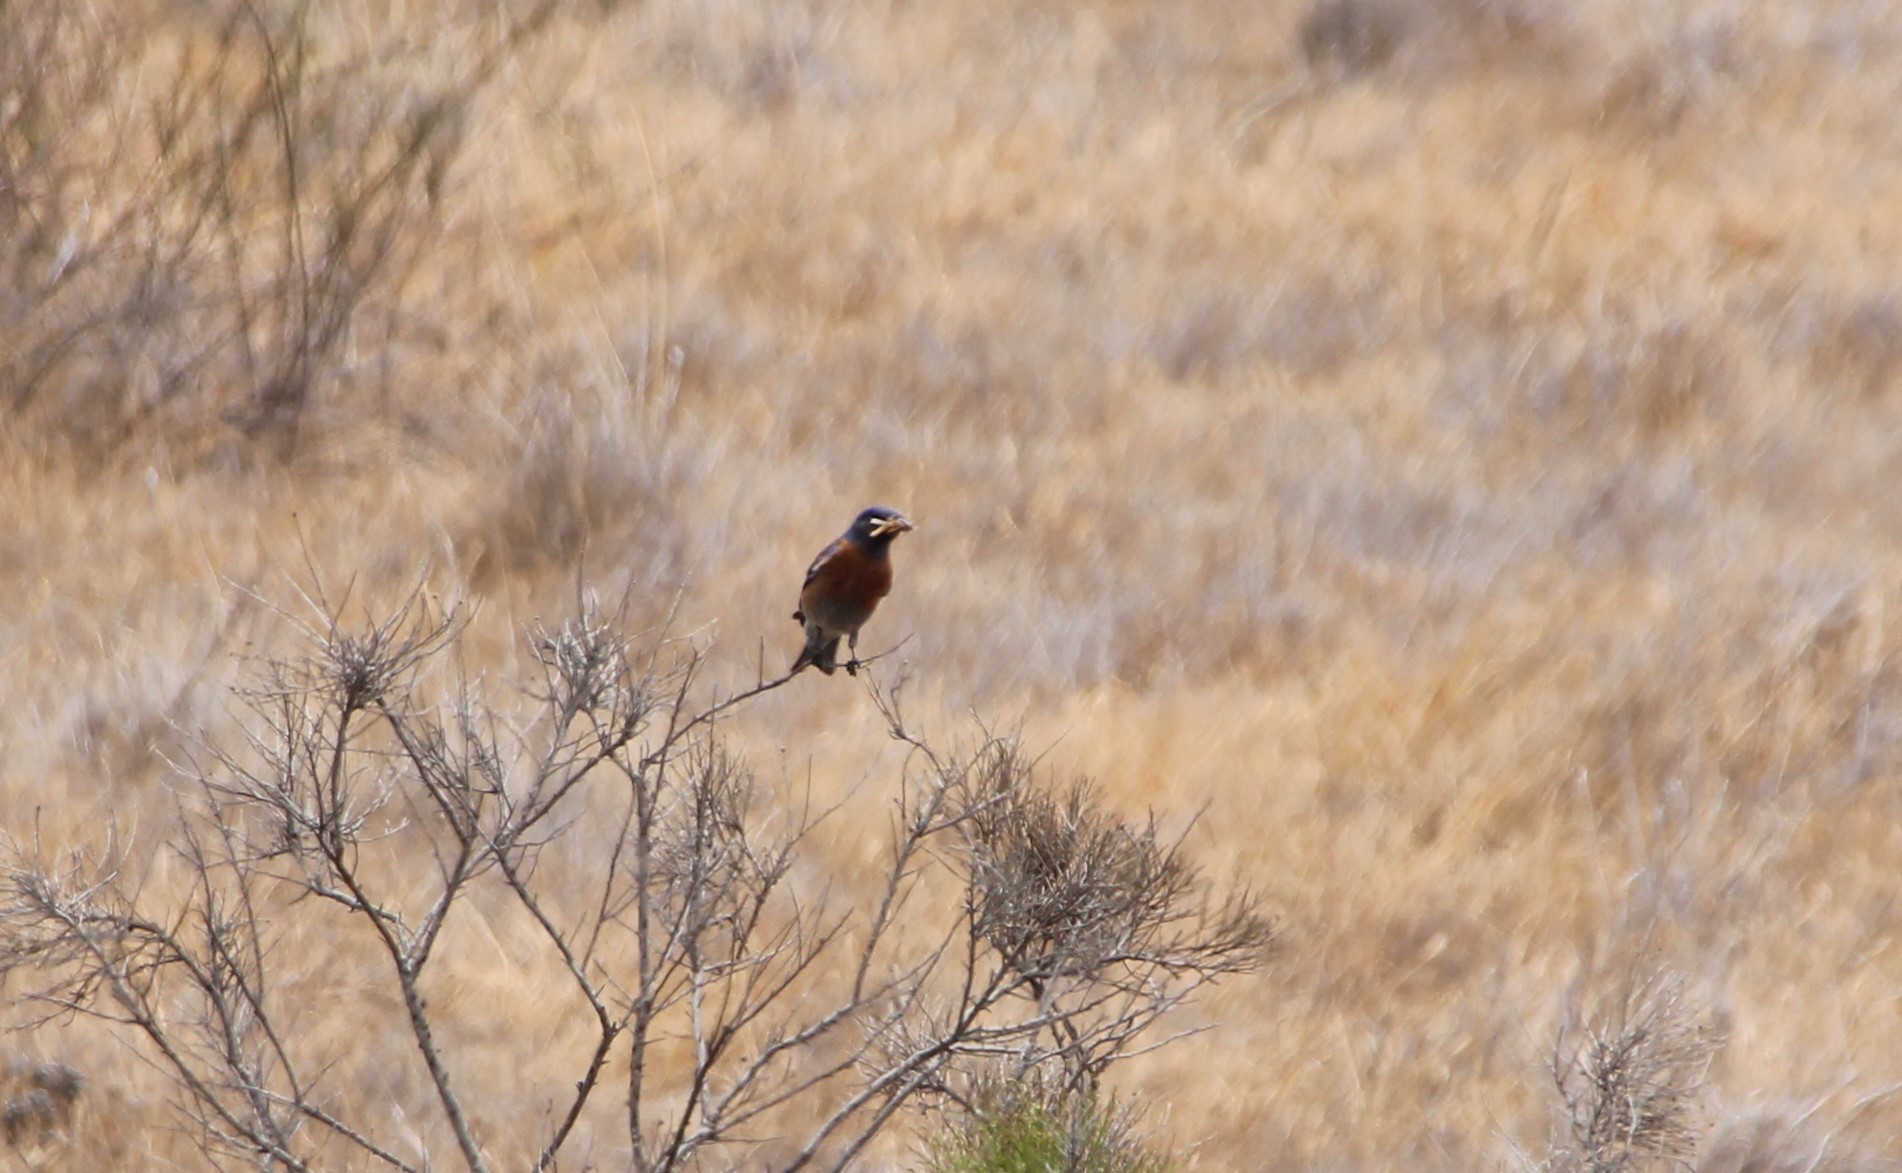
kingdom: Animalia
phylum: Chordata
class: Aves
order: Passeriformes
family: Turdidae
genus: Sialia
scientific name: Sialia mexicana
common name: Western bluebird
